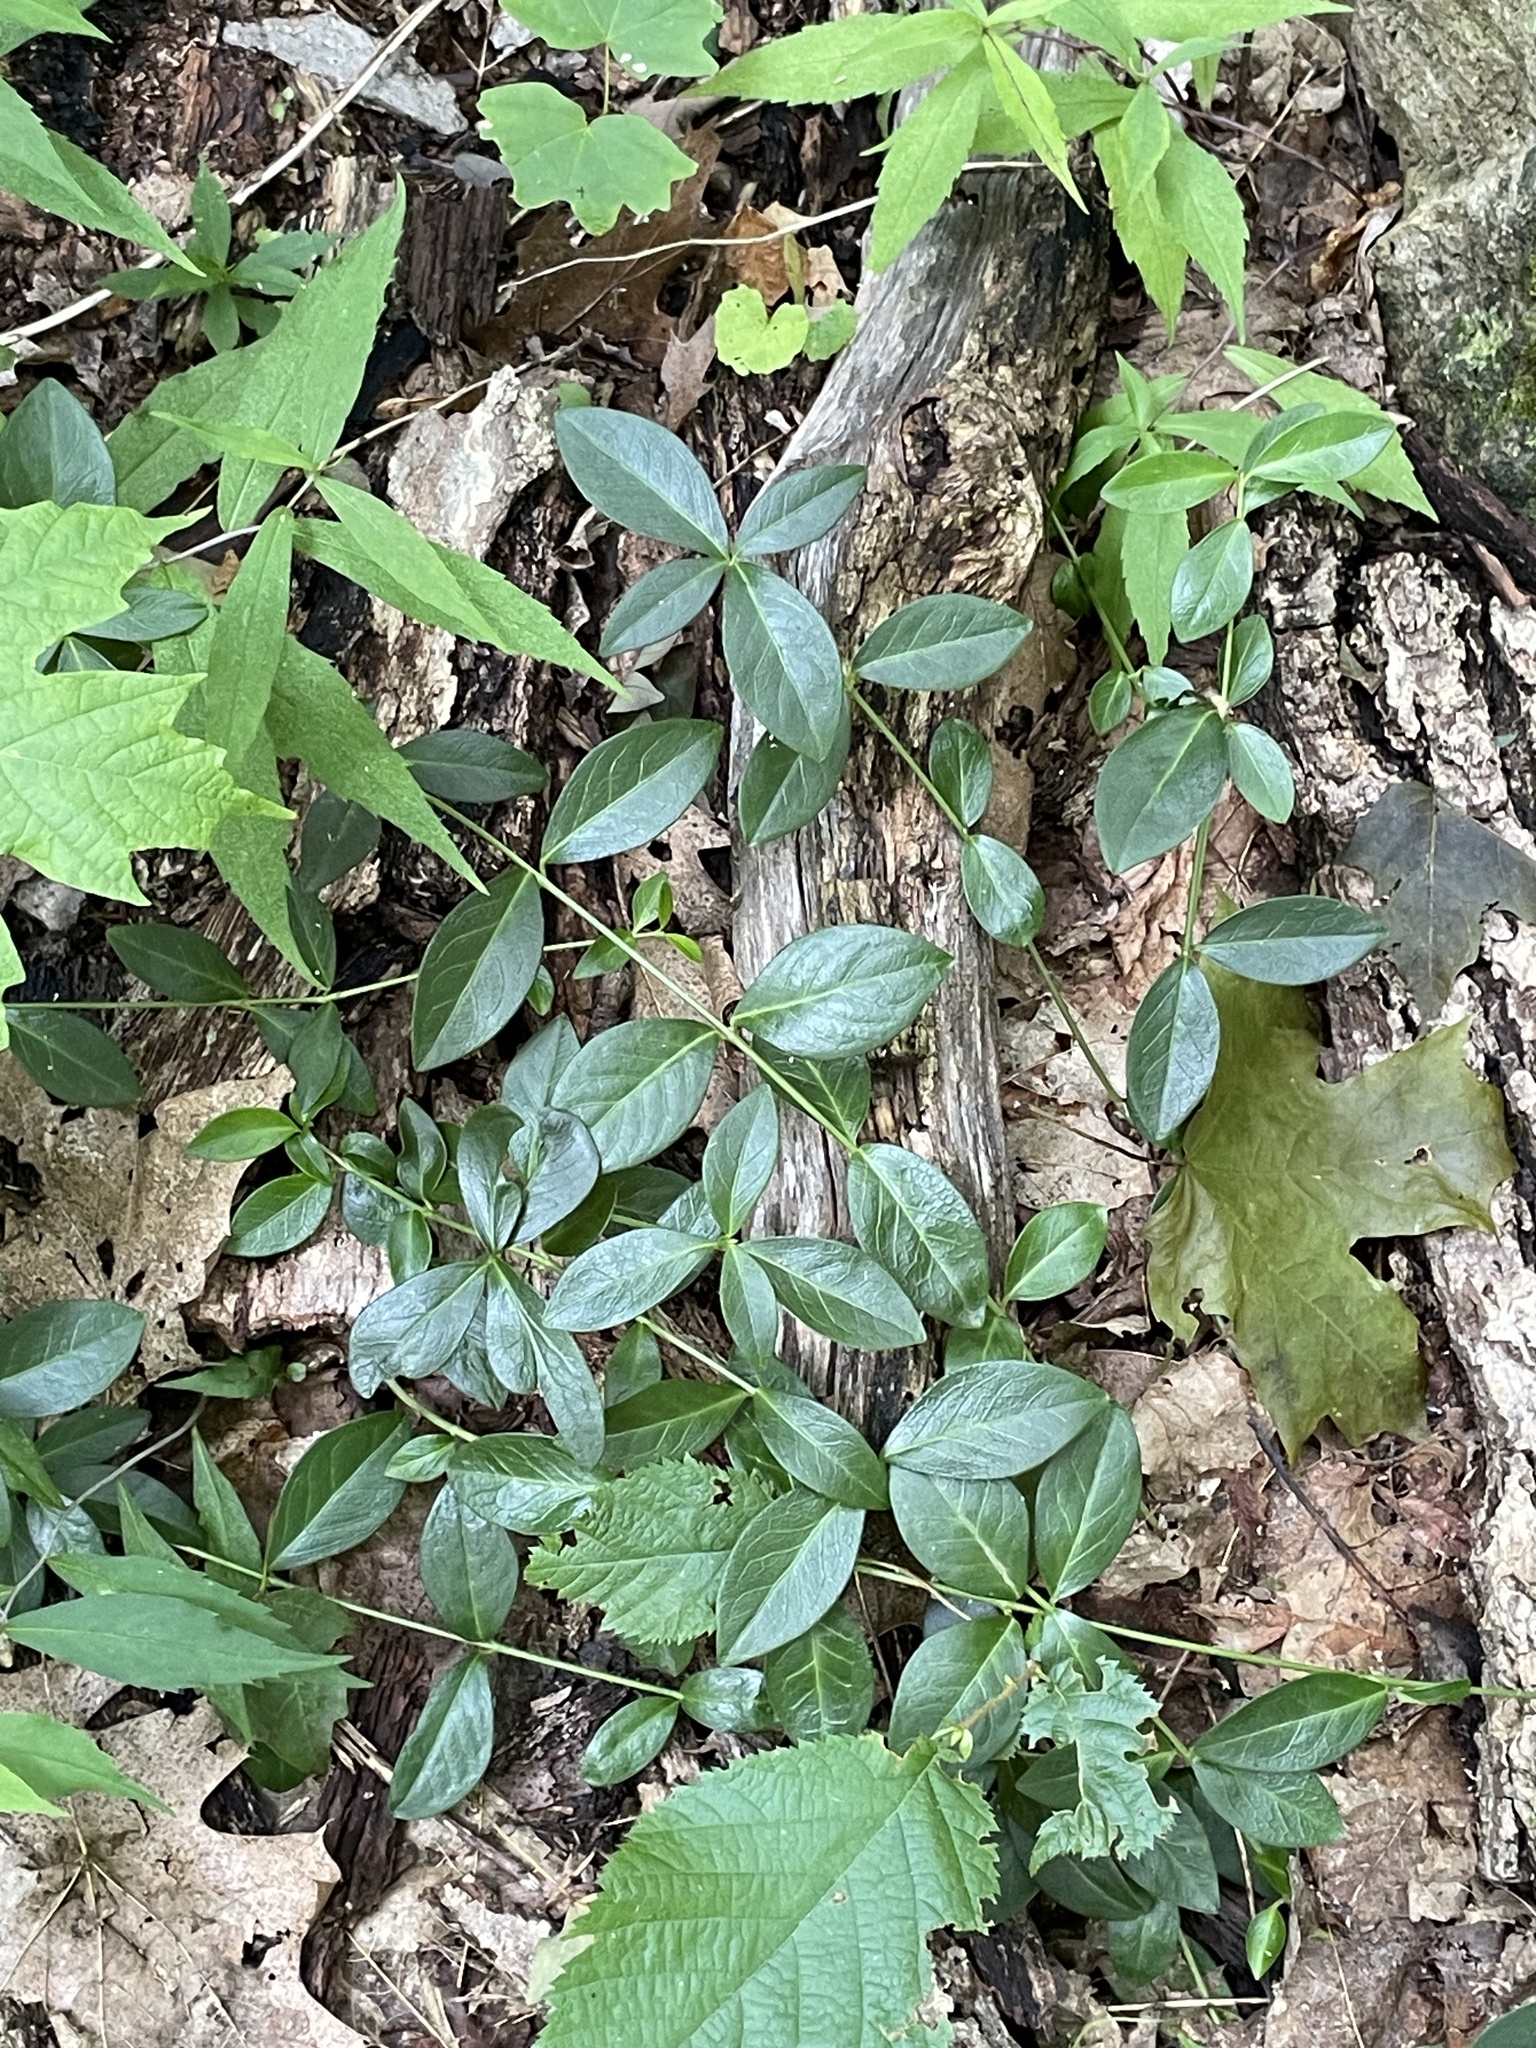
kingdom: Plantae
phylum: Tracheophyta
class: Magnoliopsida
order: Gentianales
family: Apocynaceae
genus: Vinca
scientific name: Vinca minor
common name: Lesser periwinkle
